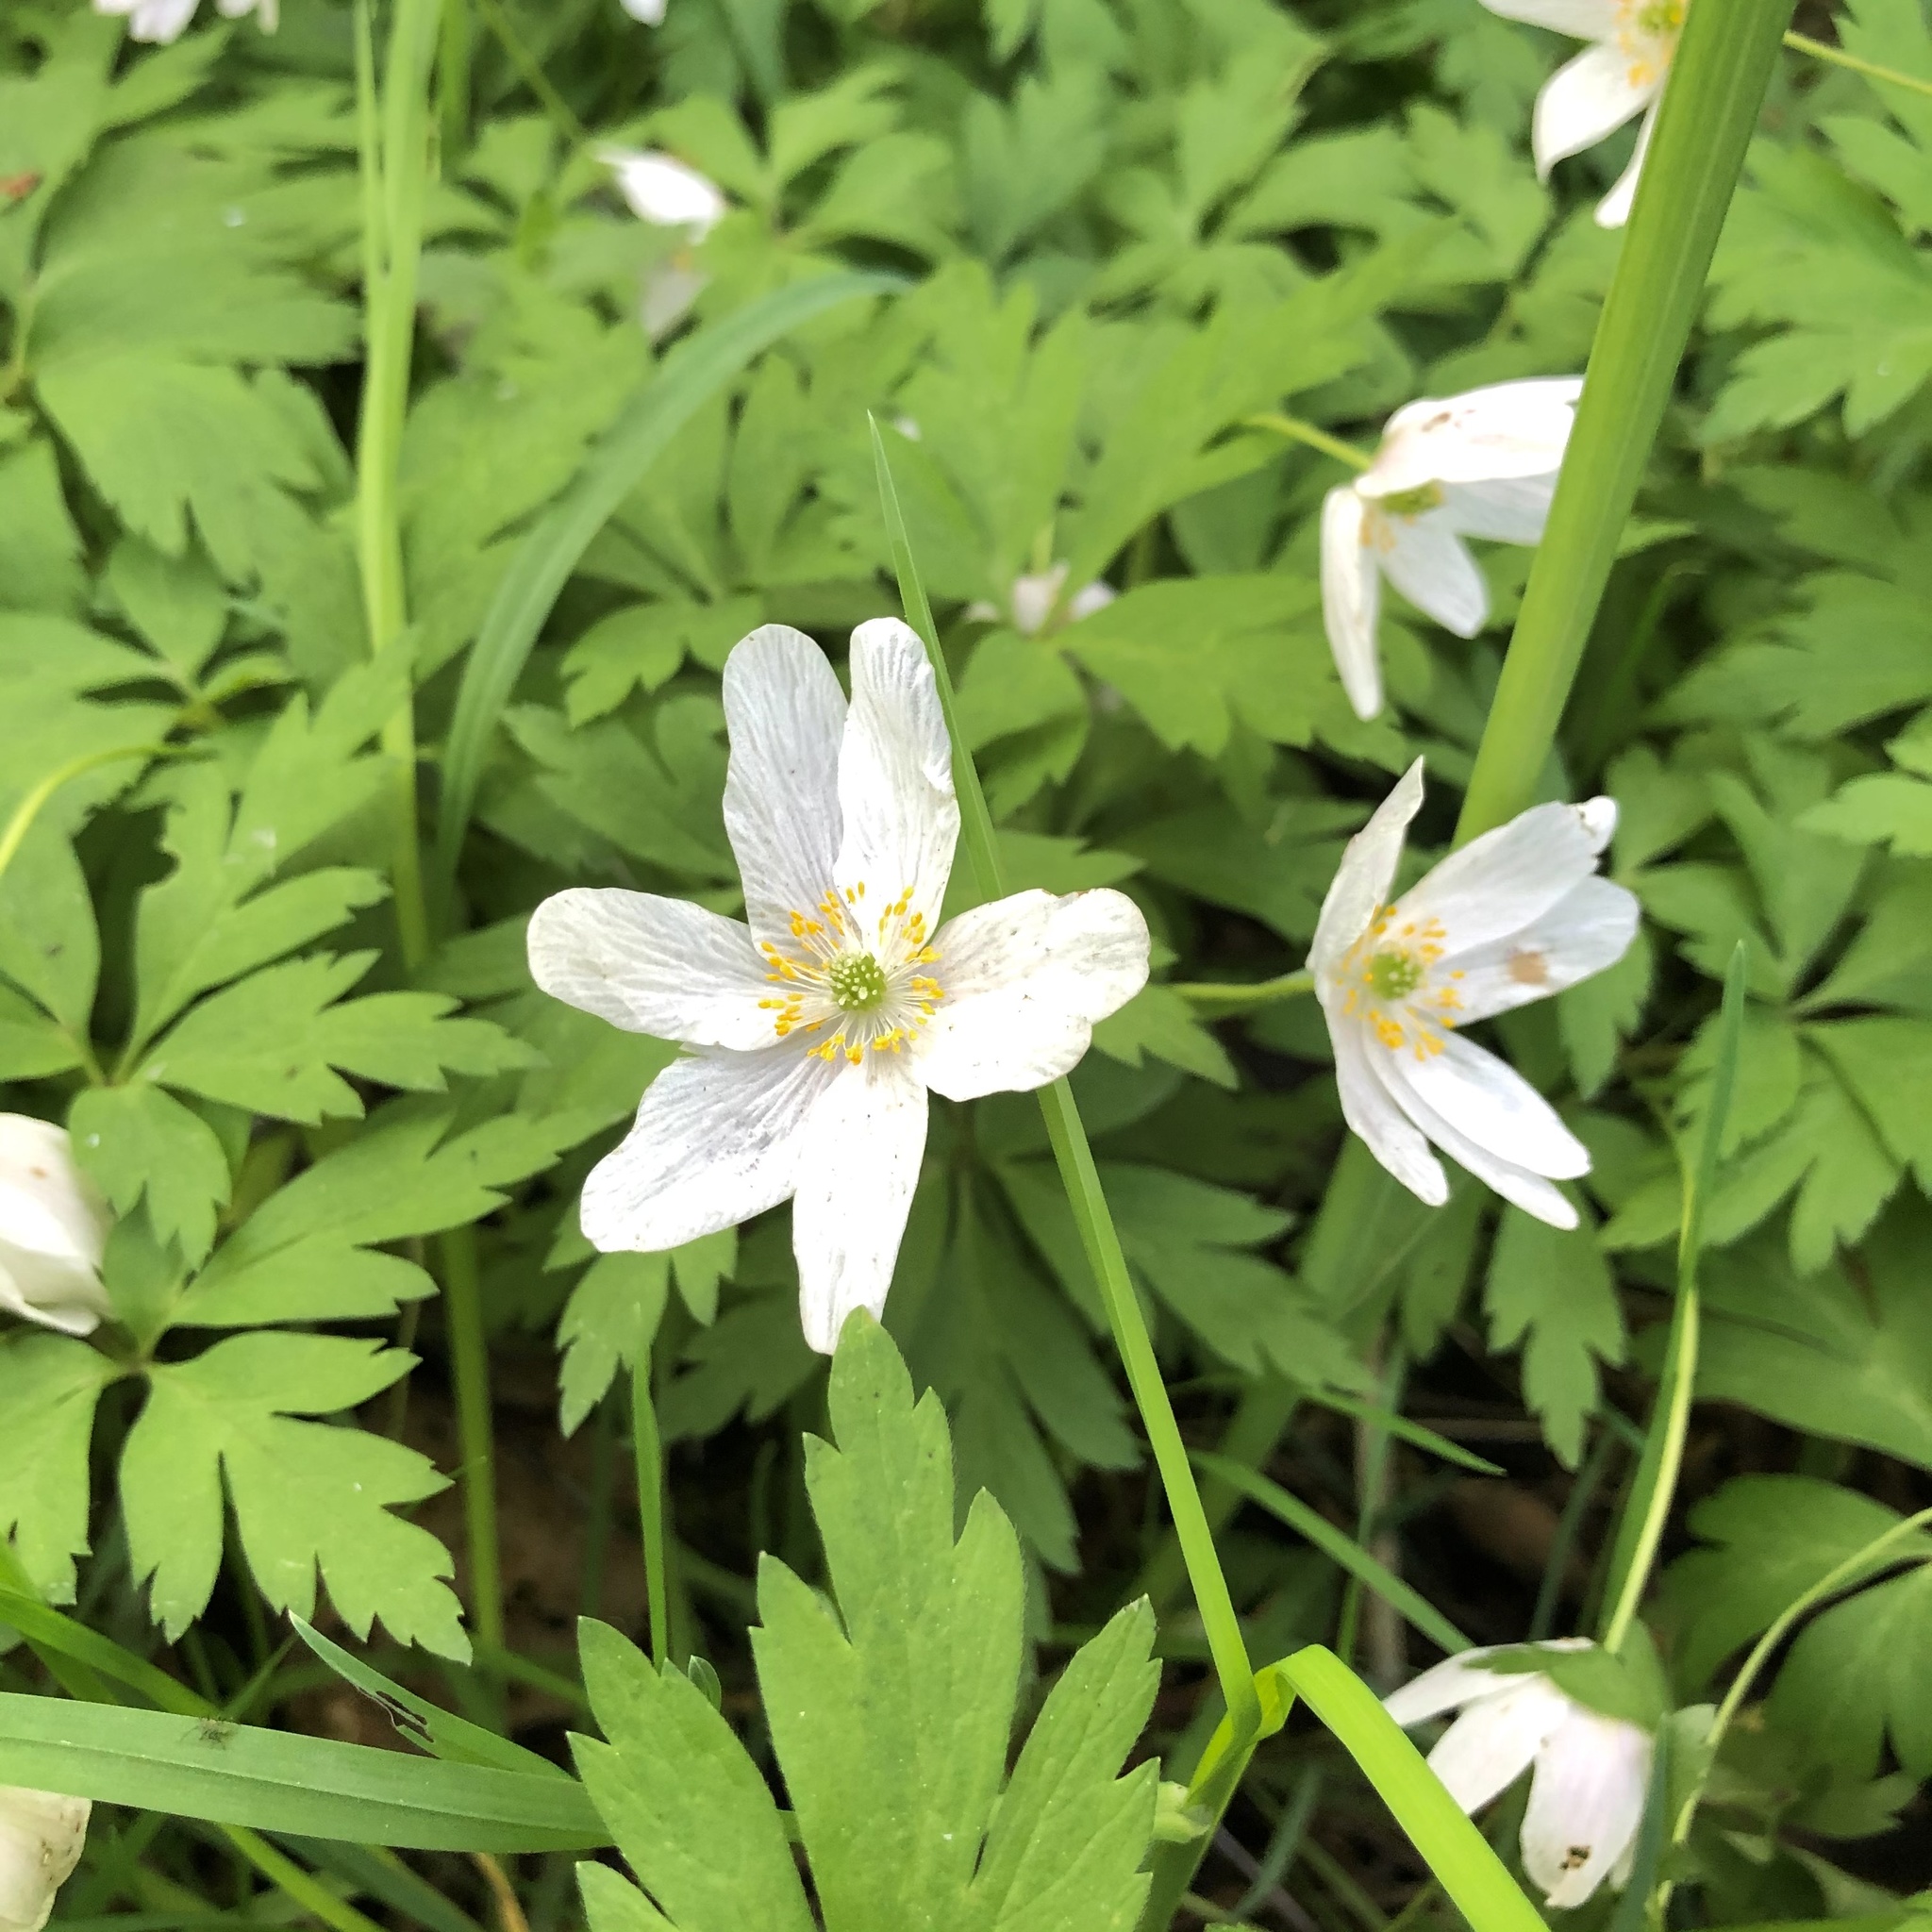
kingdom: Plantae
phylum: Tracheophyta
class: Magnoliopsida
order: Ranunculales
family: Ranunculaceae
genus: Anemone
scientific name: Anemone nemorosa
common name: Wood anemone
